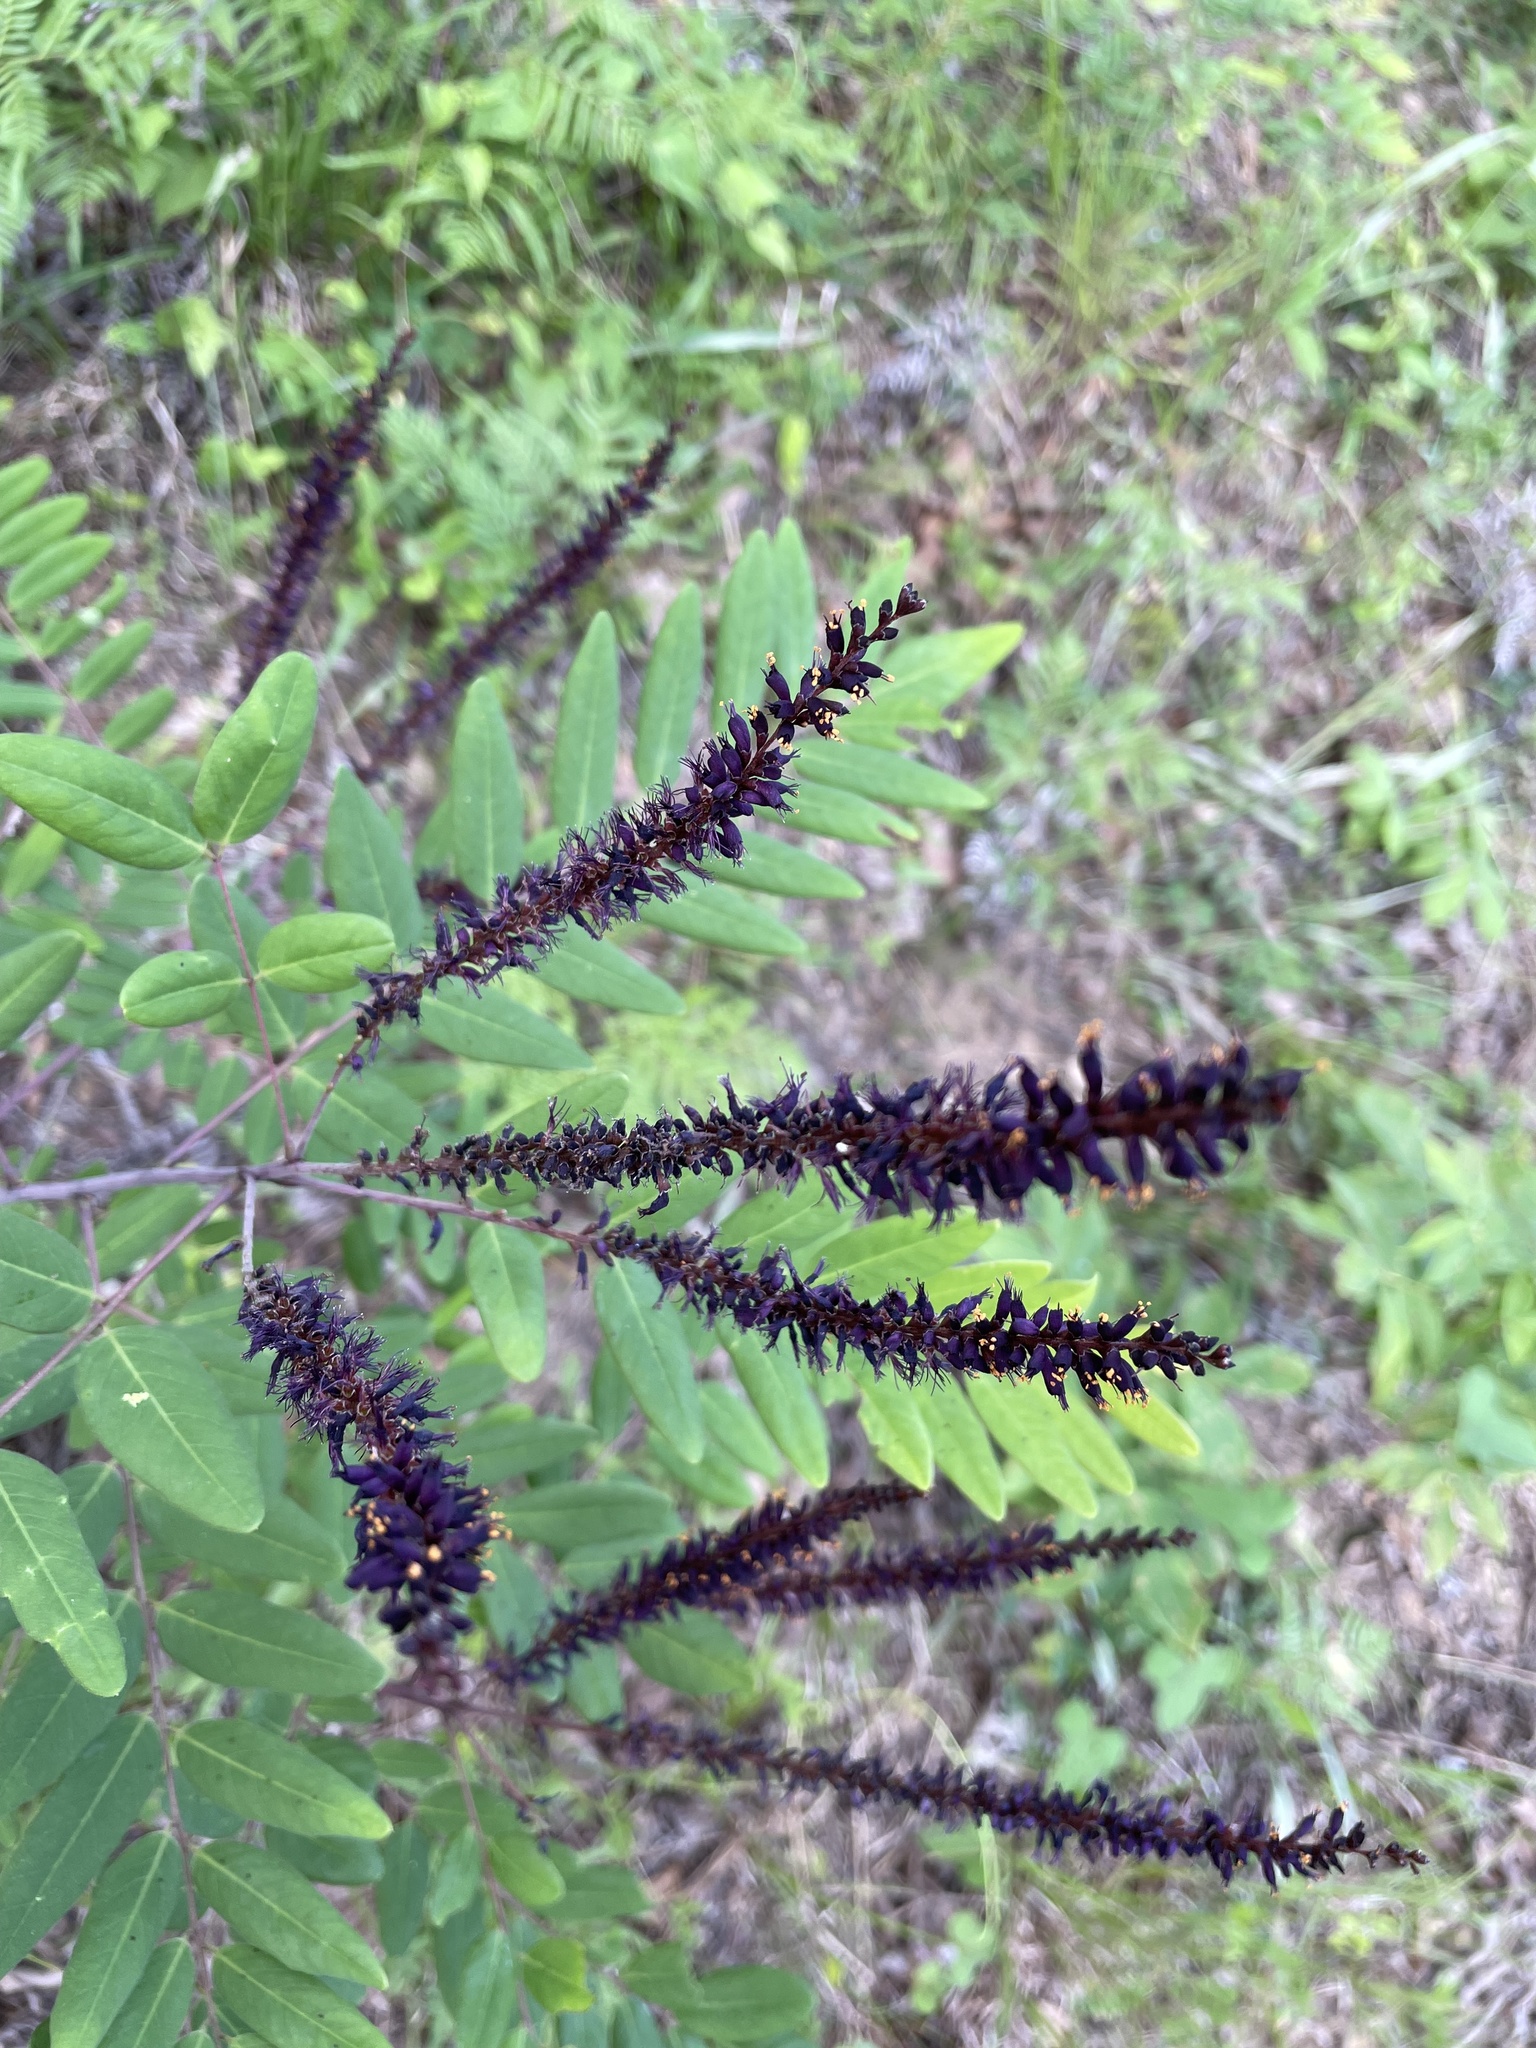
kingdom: Plantae
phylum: Tracheophyta
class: Magnoliopsida
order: Fabales
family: Fabaceae
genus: Amorpha
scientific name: Amorpha fruticosa
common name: False indigo
